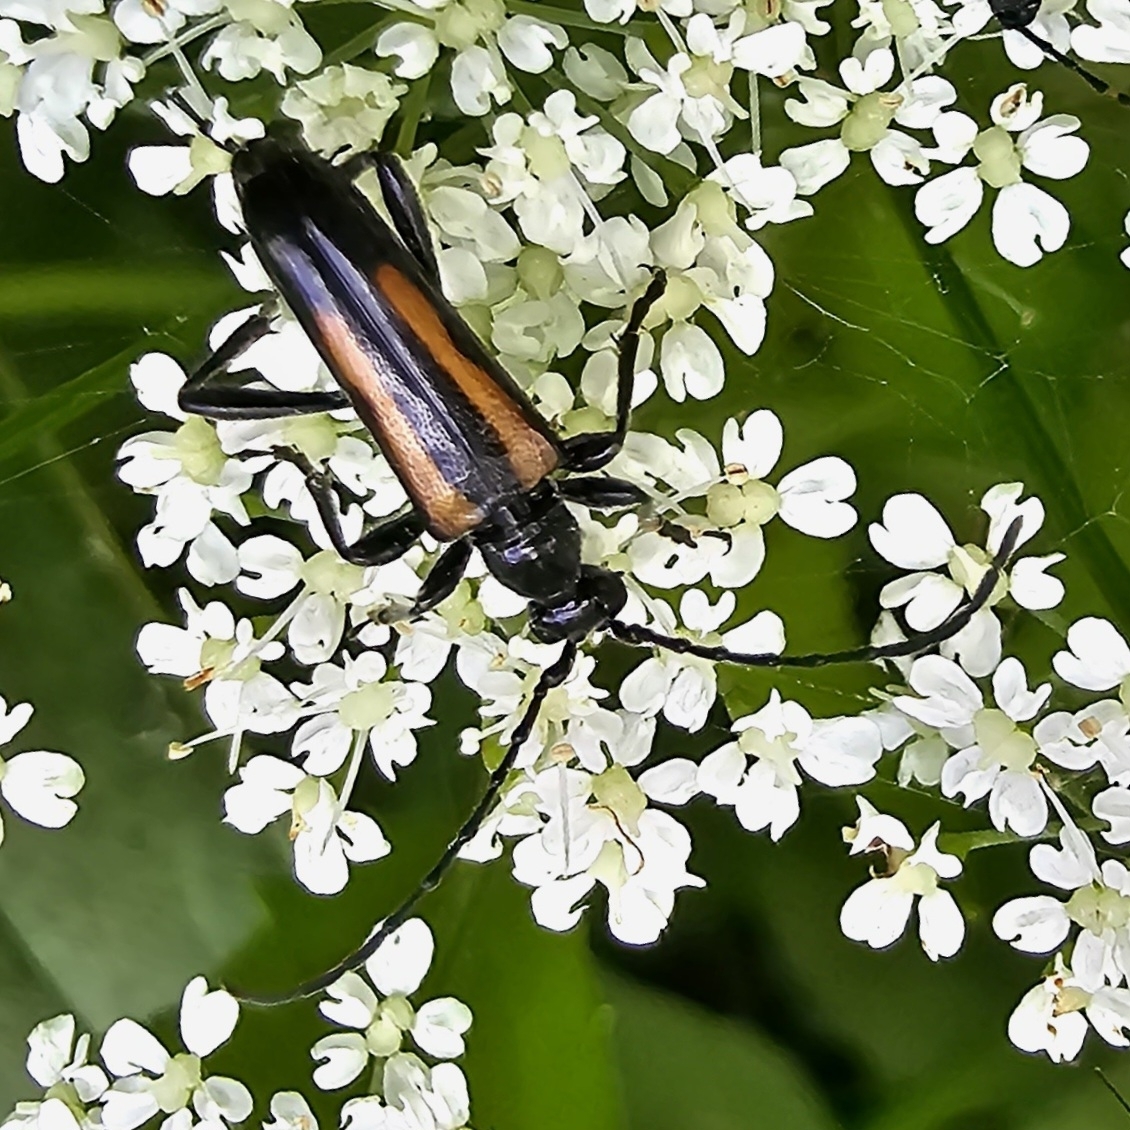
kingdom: Animalia
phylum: Arthropoda
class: Insecta
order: Coleoptera
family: Cerambycidae
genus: Strangalepta
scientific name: Strangalepta abbreviata
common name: Strangalepta flower longhorn beetle
